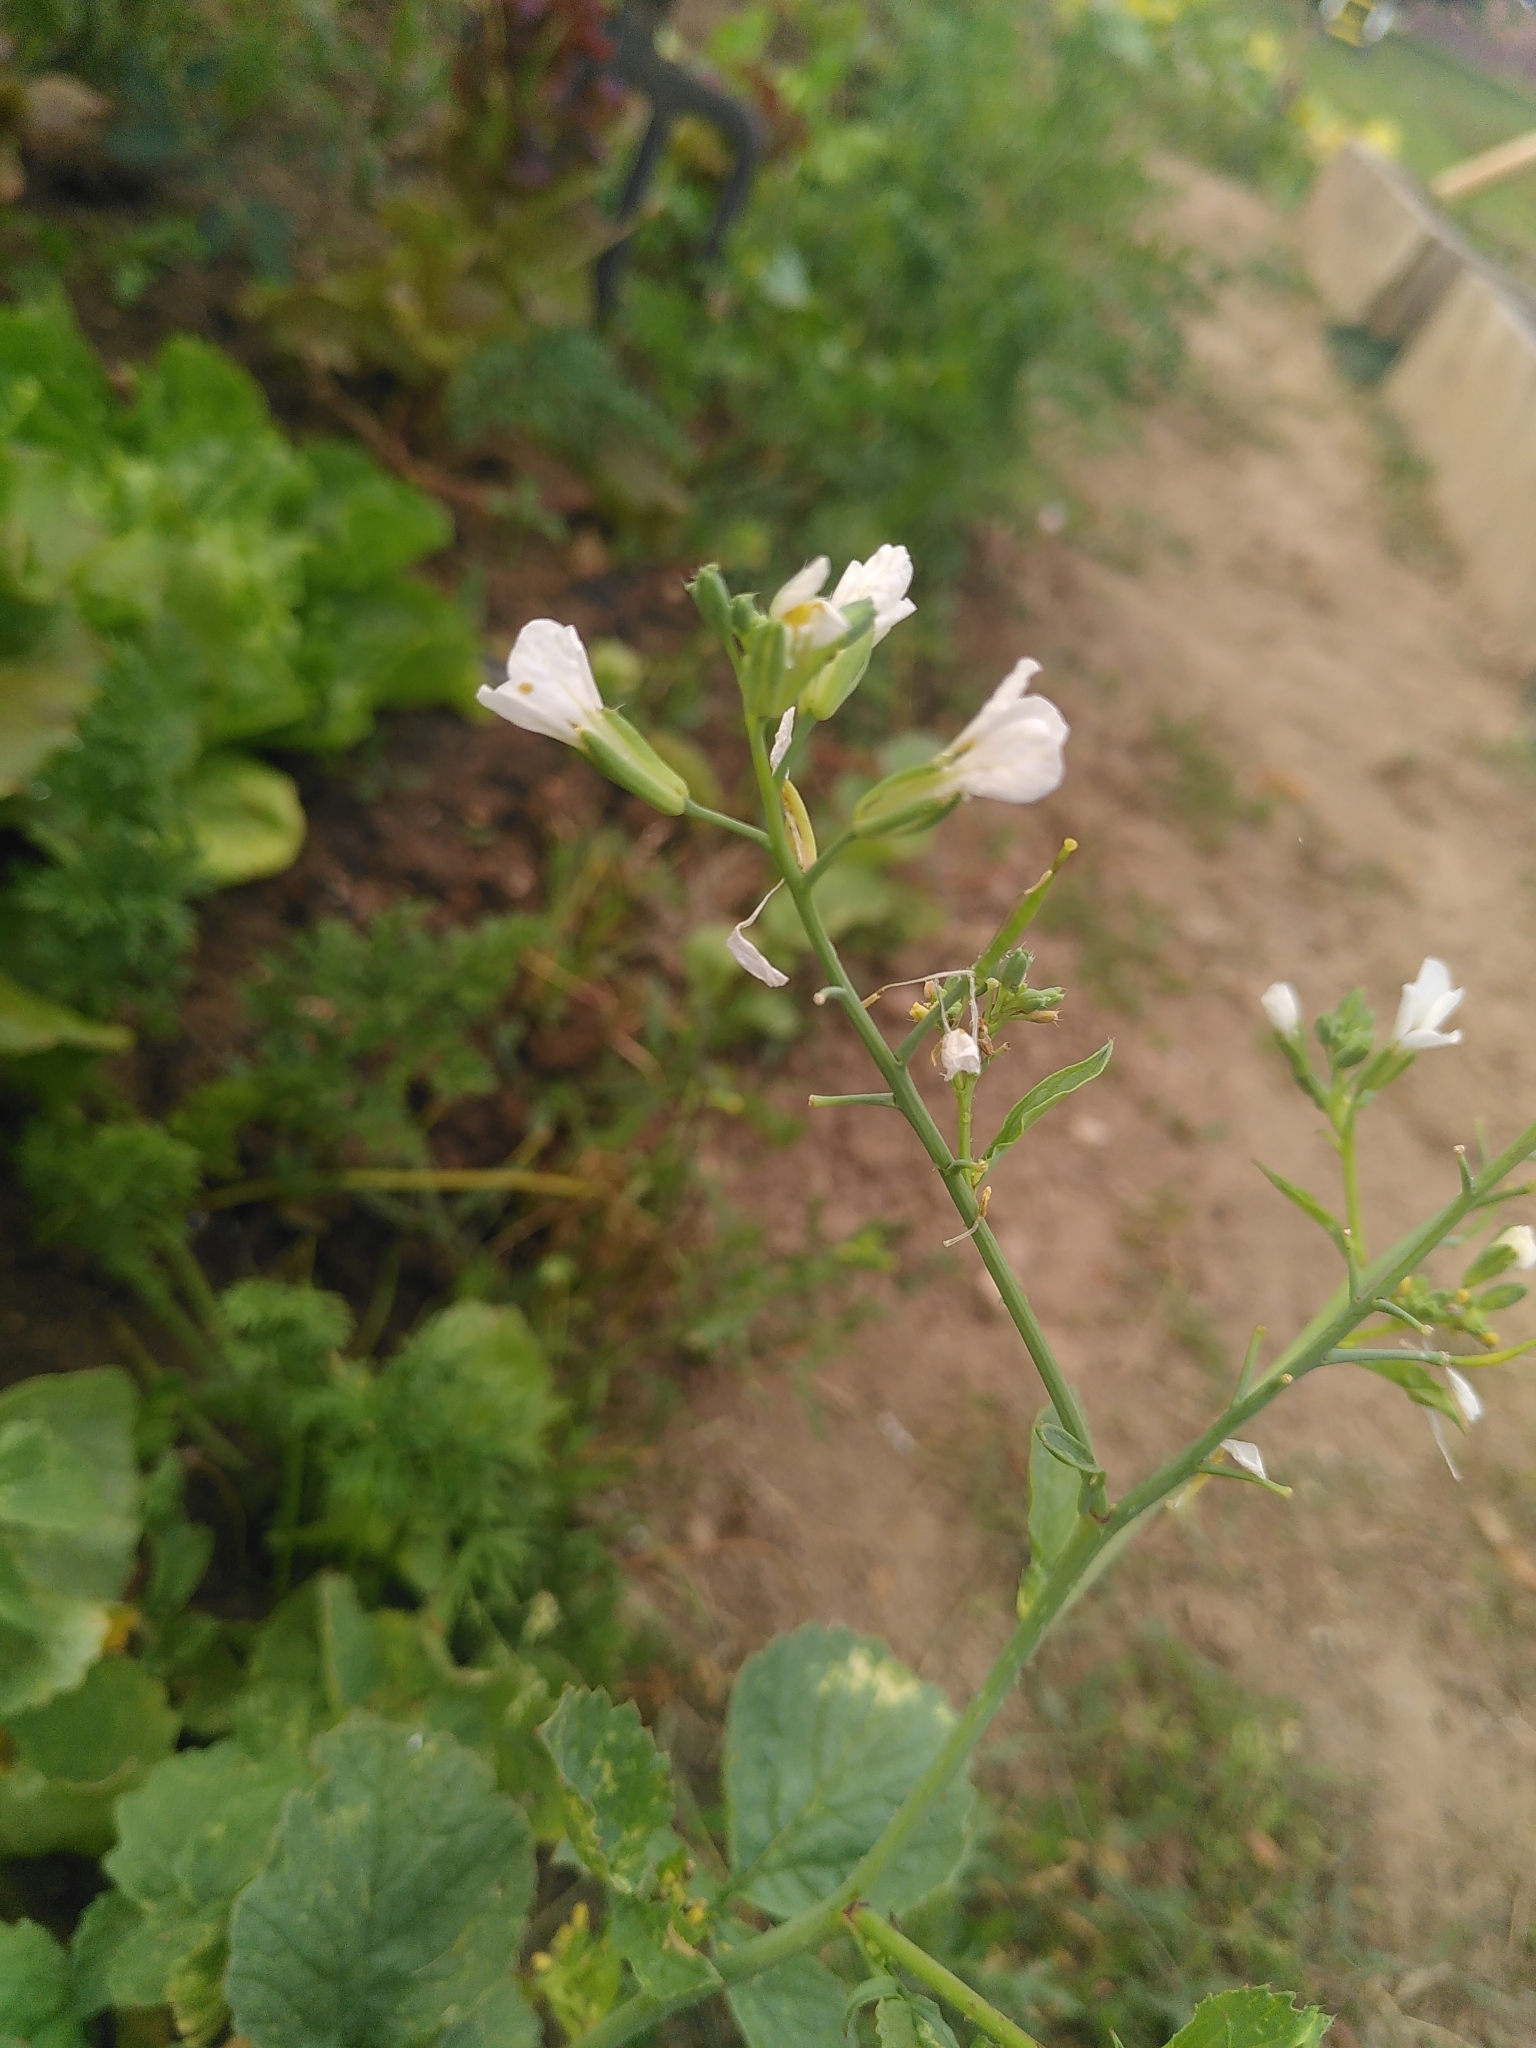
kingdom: Plantae
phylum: Tracheophyta
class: Magnoliopsida
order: Brassicales
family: Brassicaceae
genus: Raphanus
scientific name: Raphanus sativus
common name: Cultivated radish
